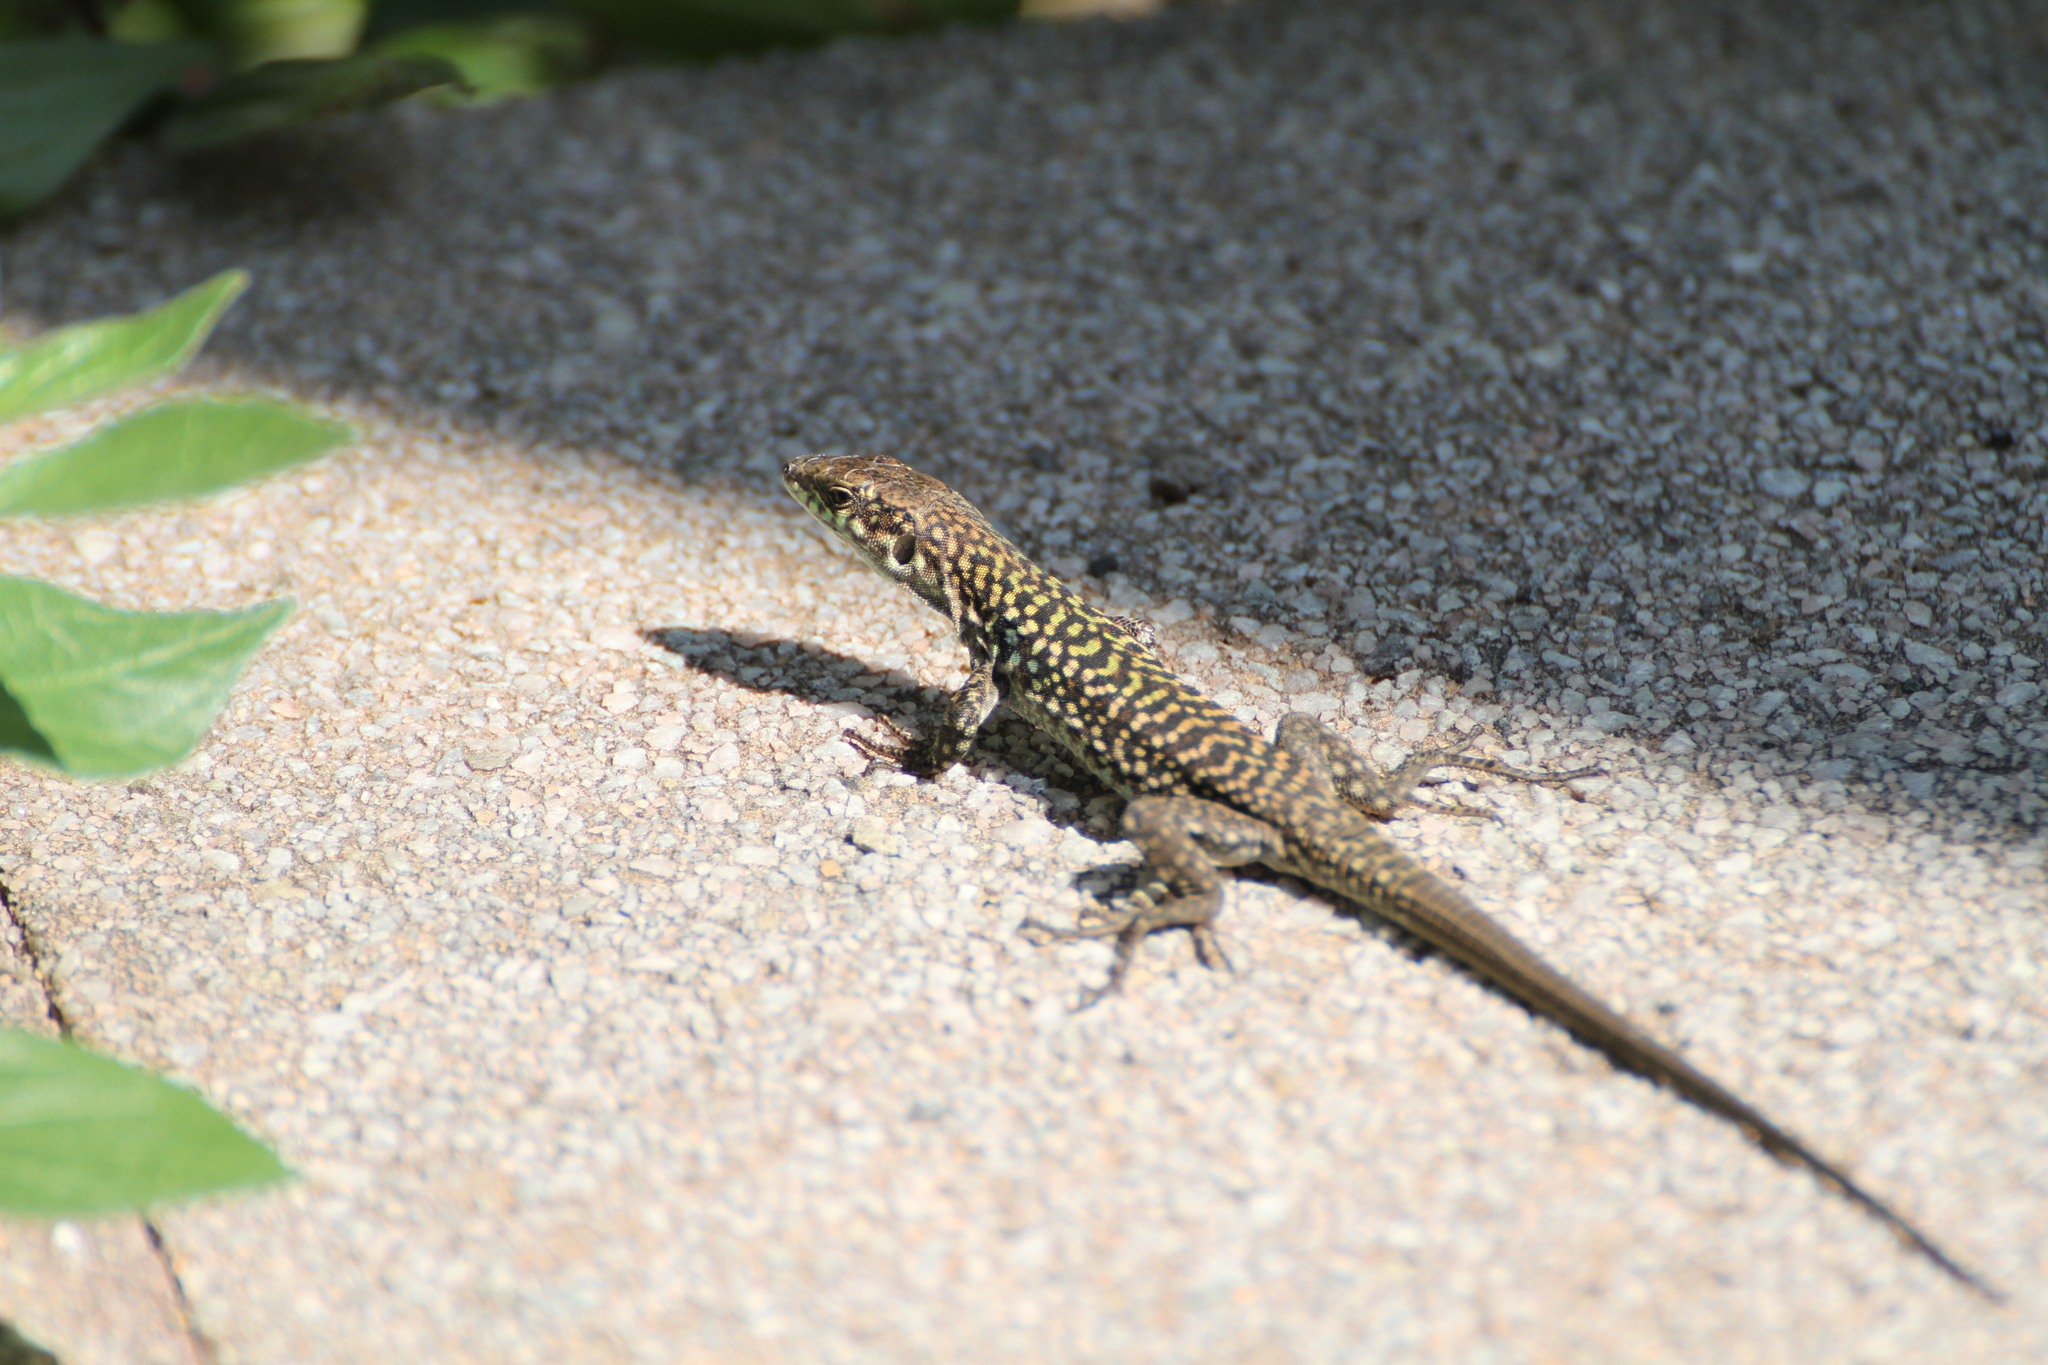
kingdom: Animalia
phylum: Chordata
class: Squamata
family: Lacertidae
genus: Podarcis
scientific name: Podarcis siculus
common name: Italian wall lizard
